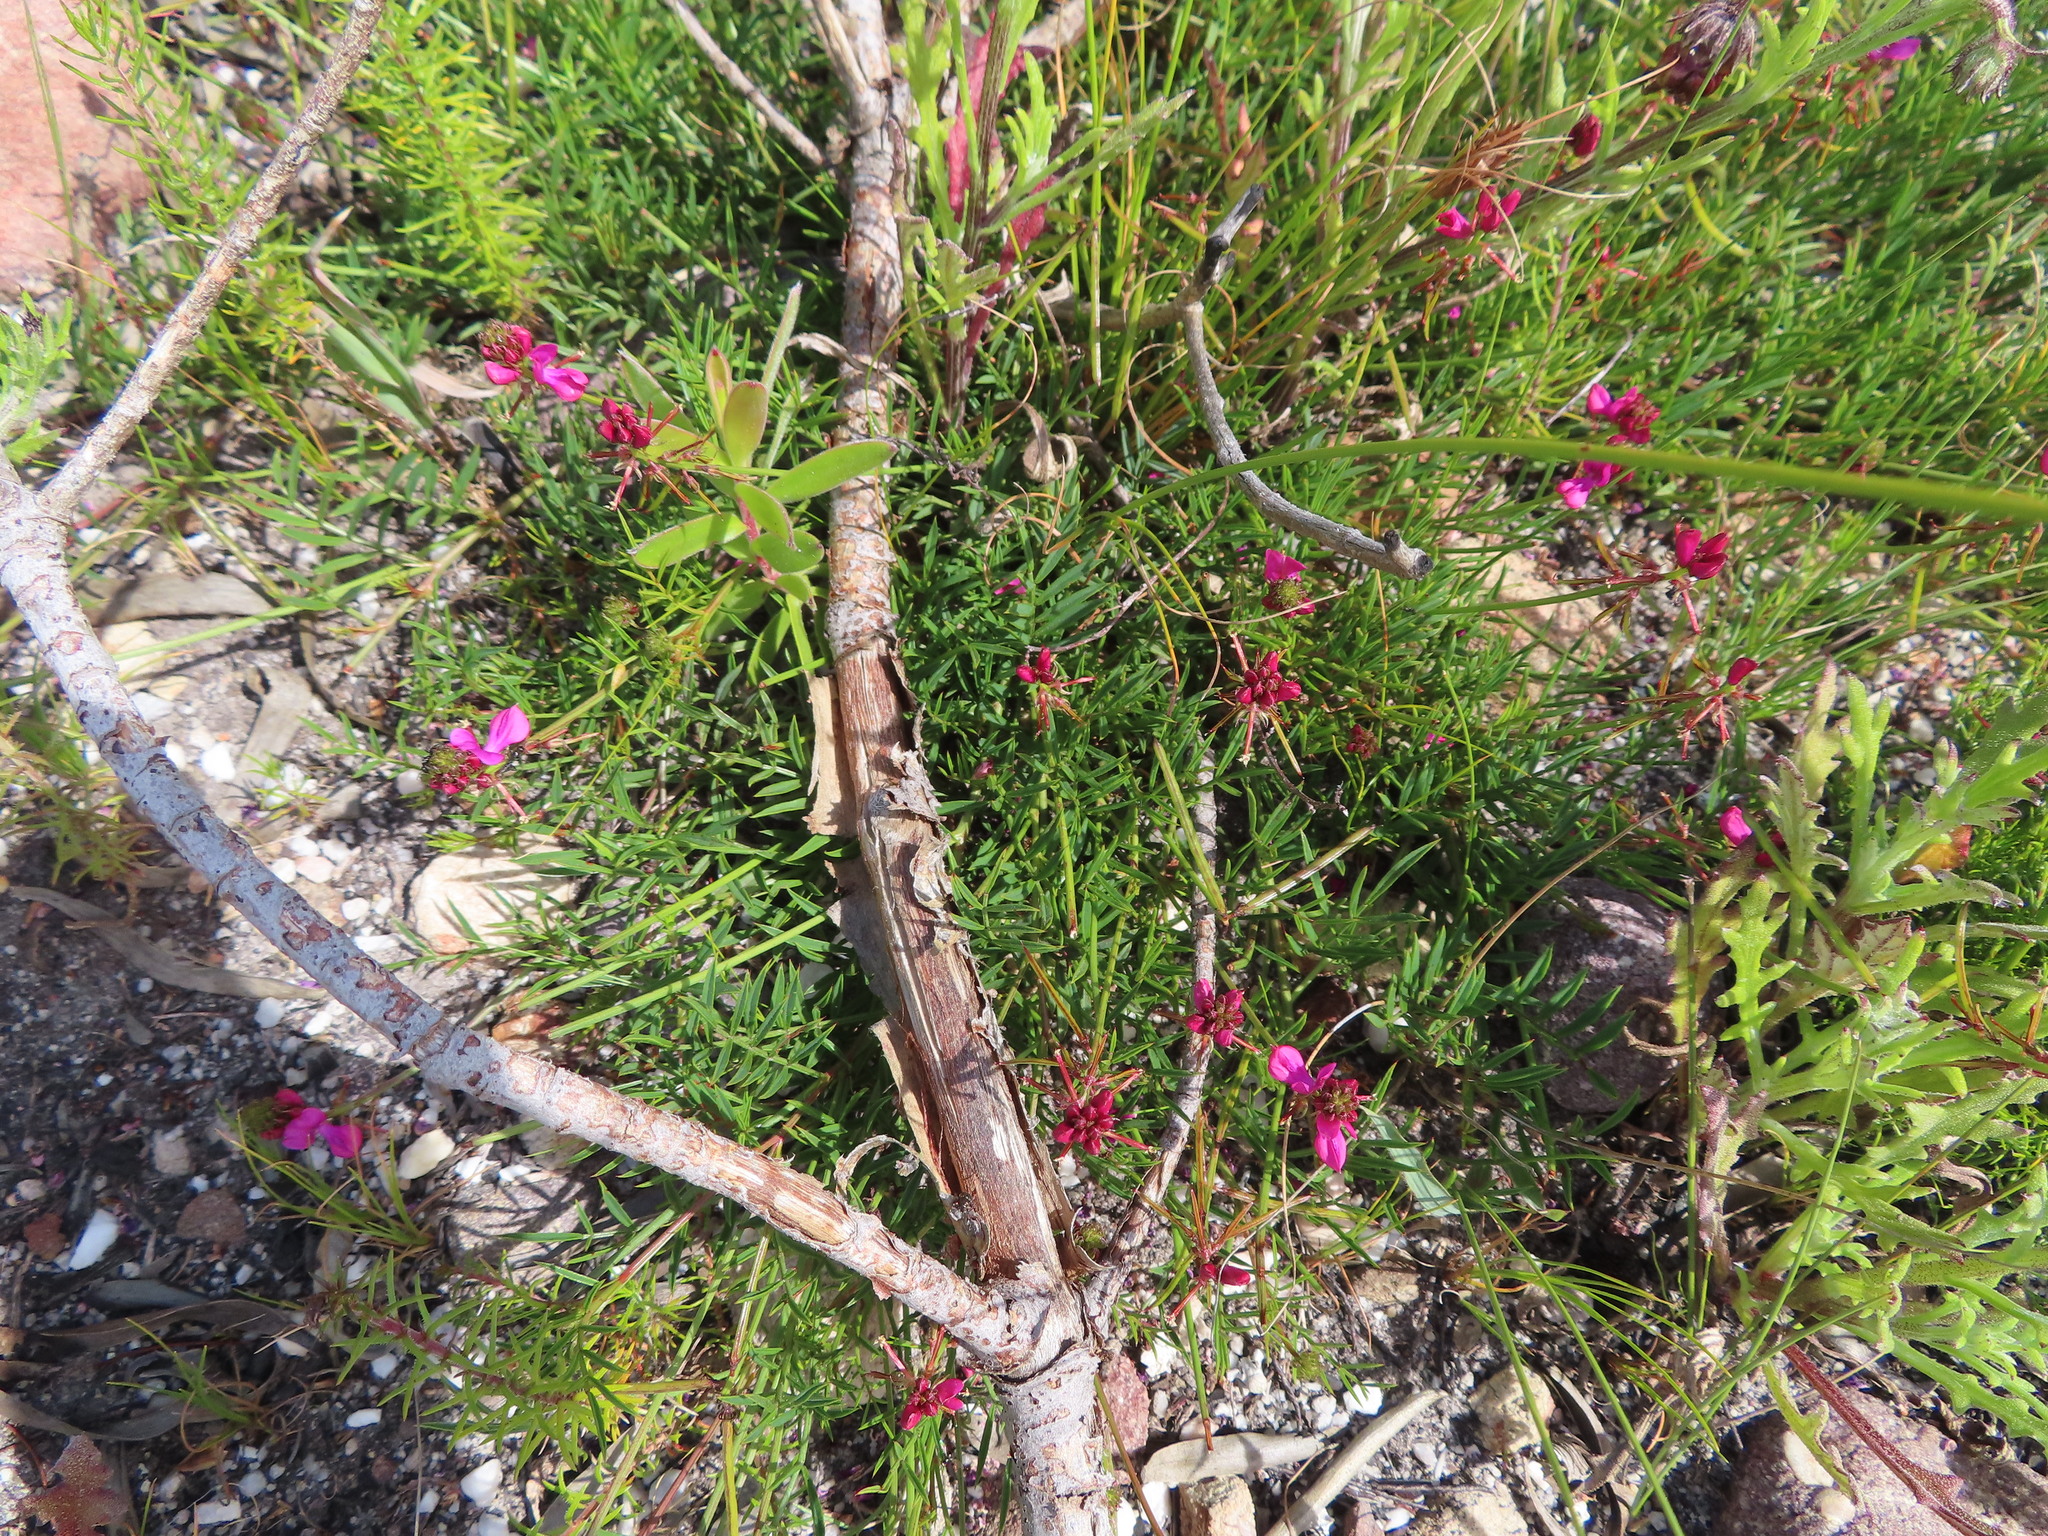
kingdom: Plantae
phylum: Tracheophyta
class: Magnoliopsida
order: Fabales
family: Fabaceae
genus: Indigofera
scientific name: Indigofera capillaris
